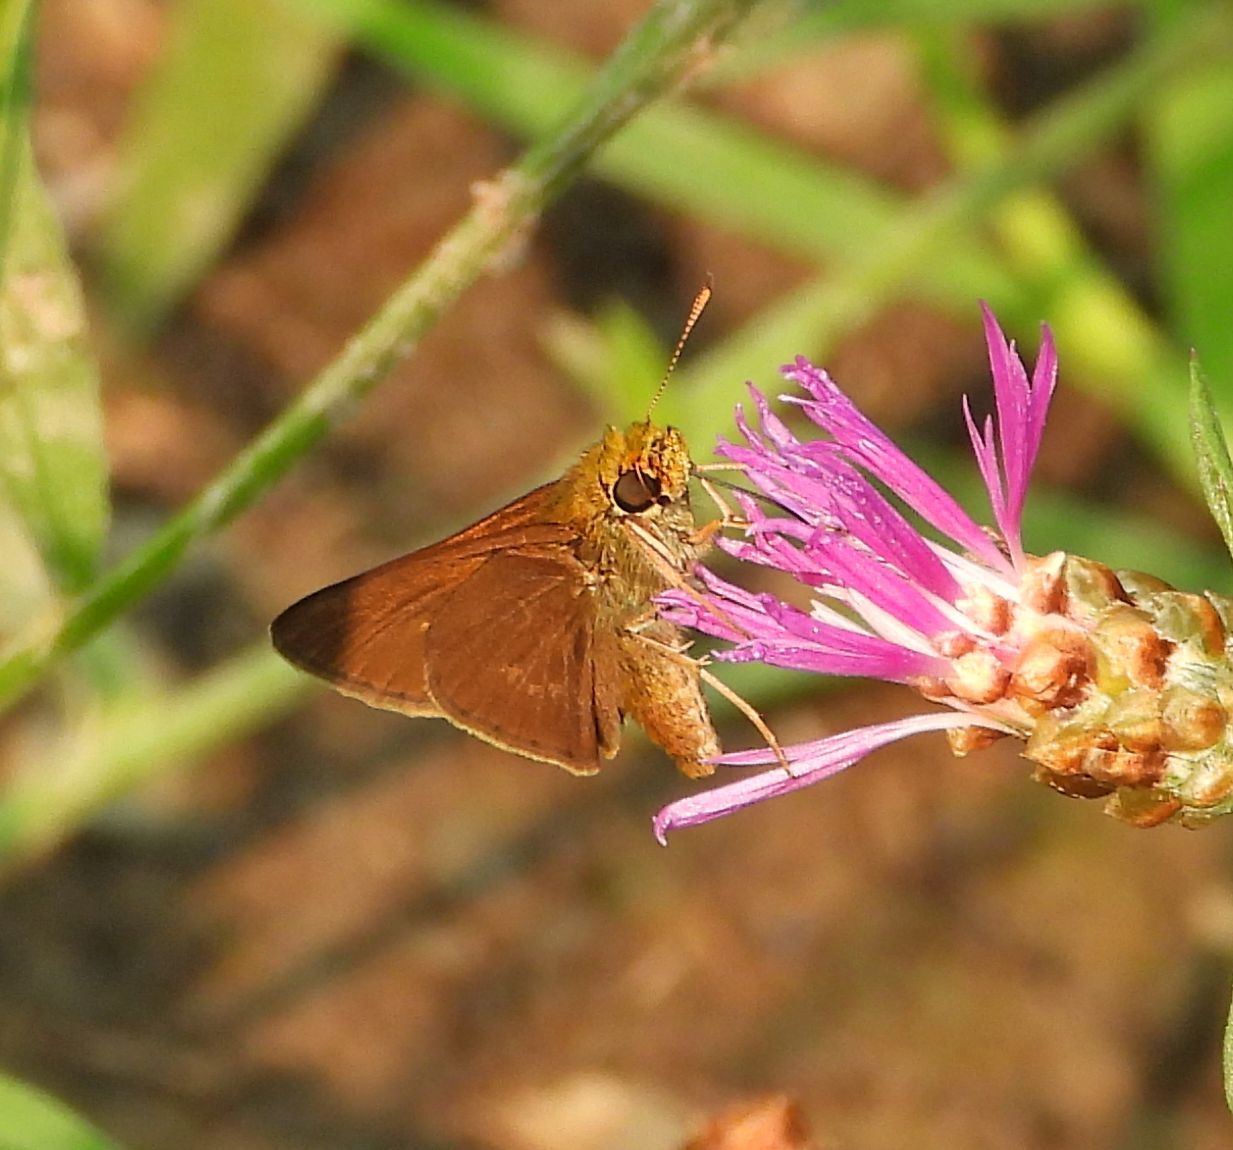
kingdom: Animalia
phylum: Arthropoda
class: Insecta
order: Lepidoptera
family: Hesperiidae
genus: Euphyes
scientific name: Euphyes vestris
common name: Dun skipper
